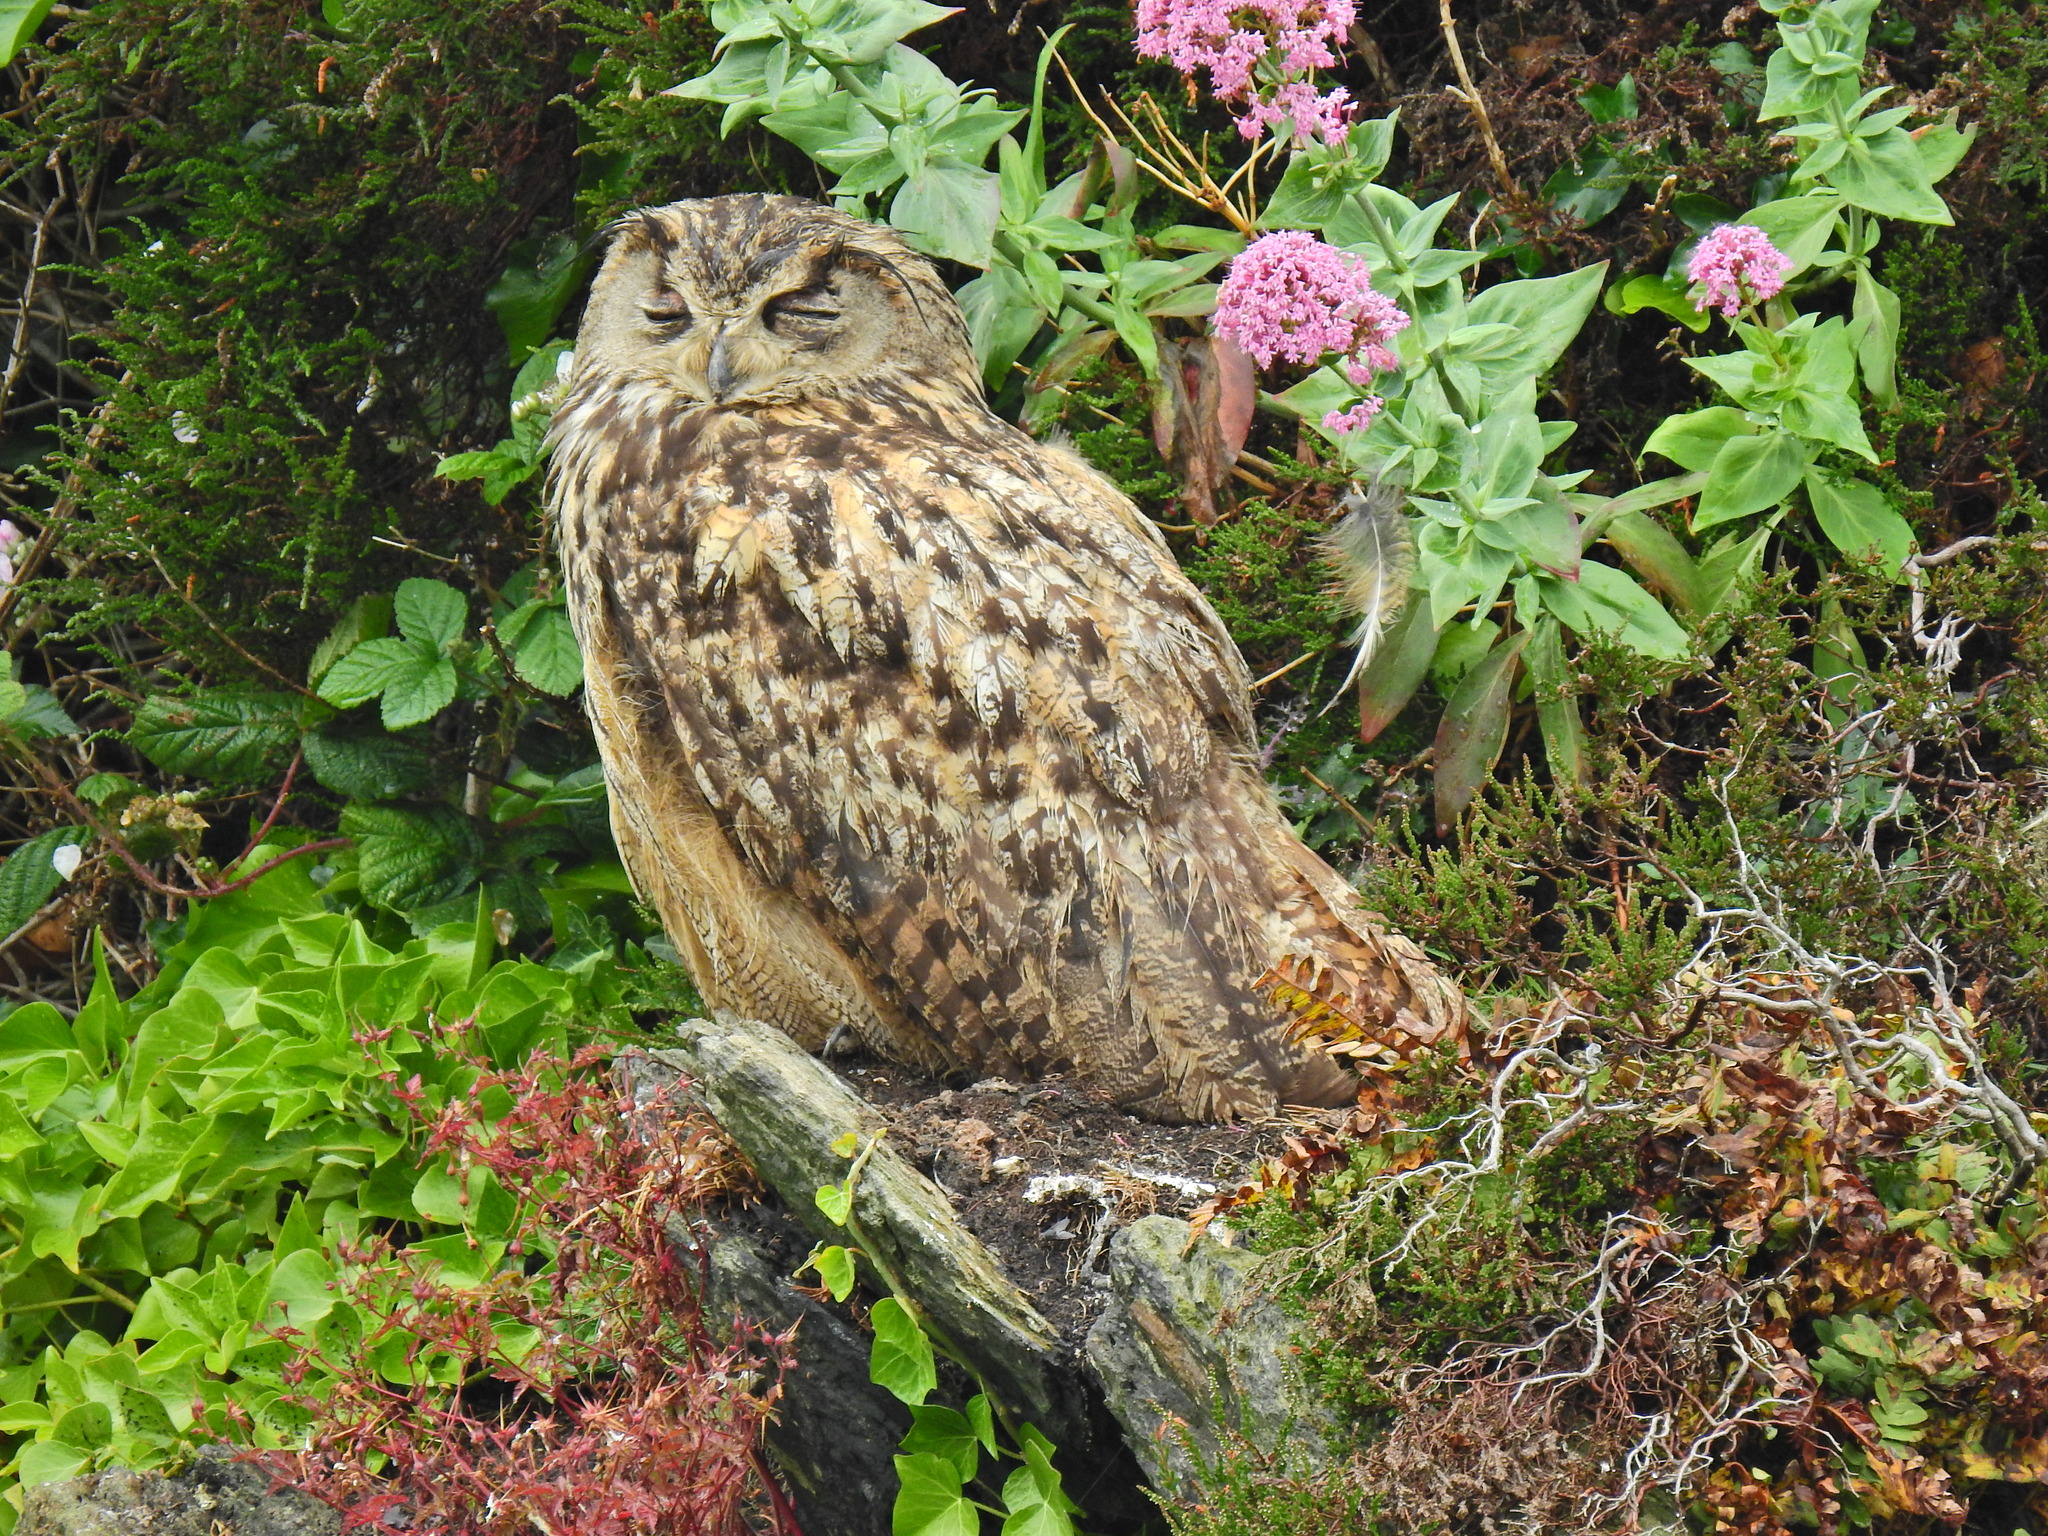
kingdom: Animalia
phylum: Chordata
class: Aves
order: Strigiformes
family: Strigidae
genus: Bubo
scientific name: Bubo bubo
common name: Eurasian eagle-owl
